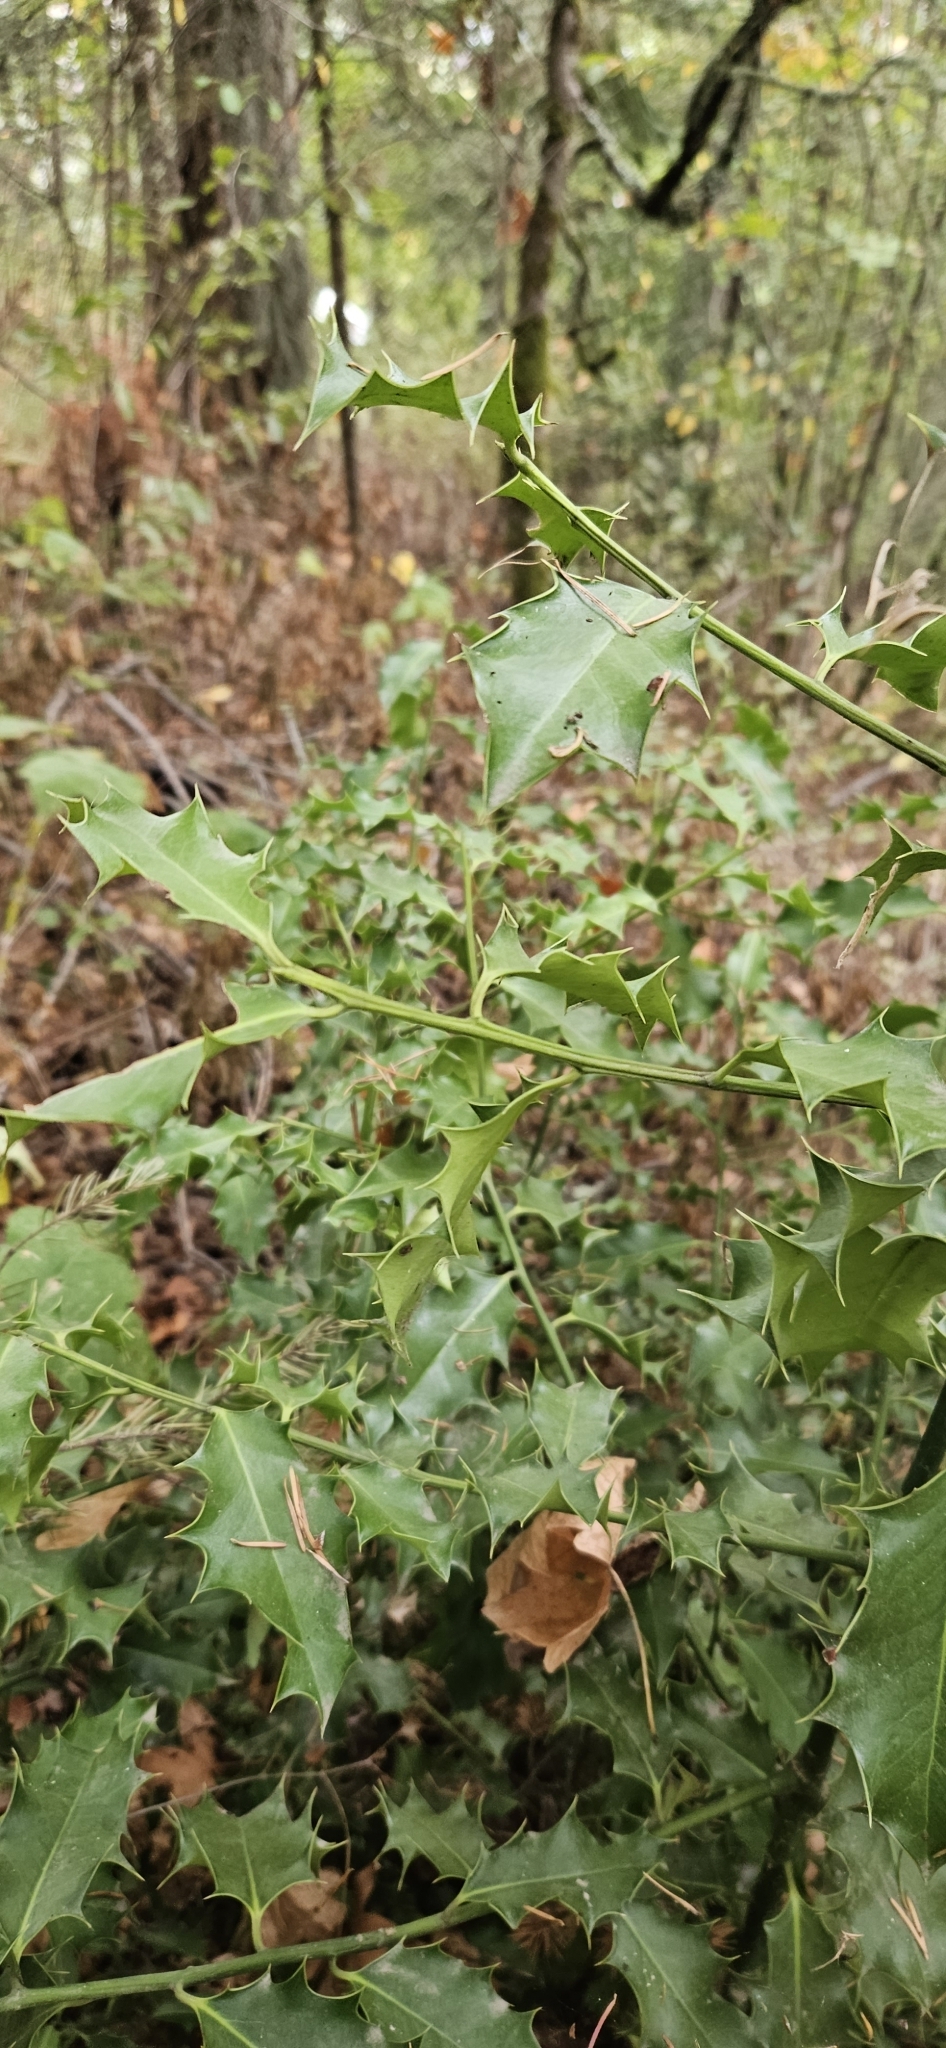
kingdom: Plantae
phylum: Tracheophyta
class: Magnoliopsida
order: Aquifoliales
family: Aquifoliaceae
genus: Ilex
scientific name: Ilex aquifolium
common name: English holly
